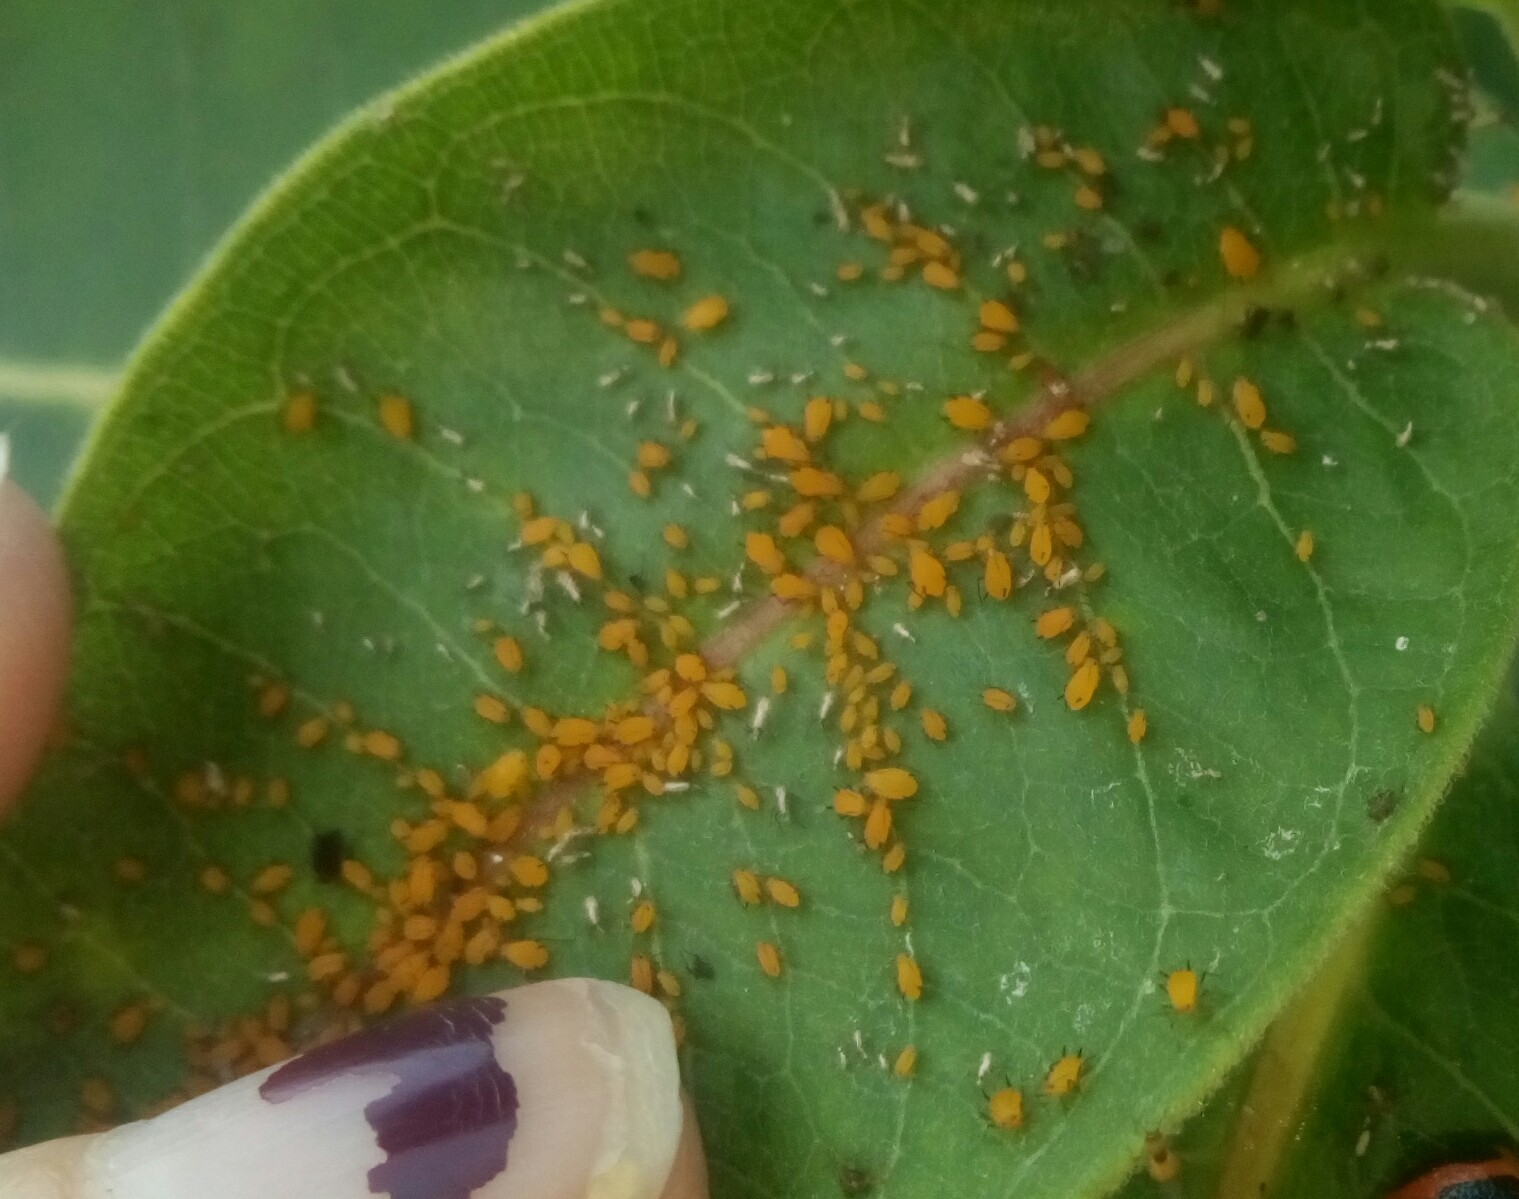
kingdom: Animalia
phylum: Arthropoda
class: Insecta
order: Hemiptera
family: Aphididae
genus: Aphis
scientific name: Aphis nerii
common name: Oleander aphid
